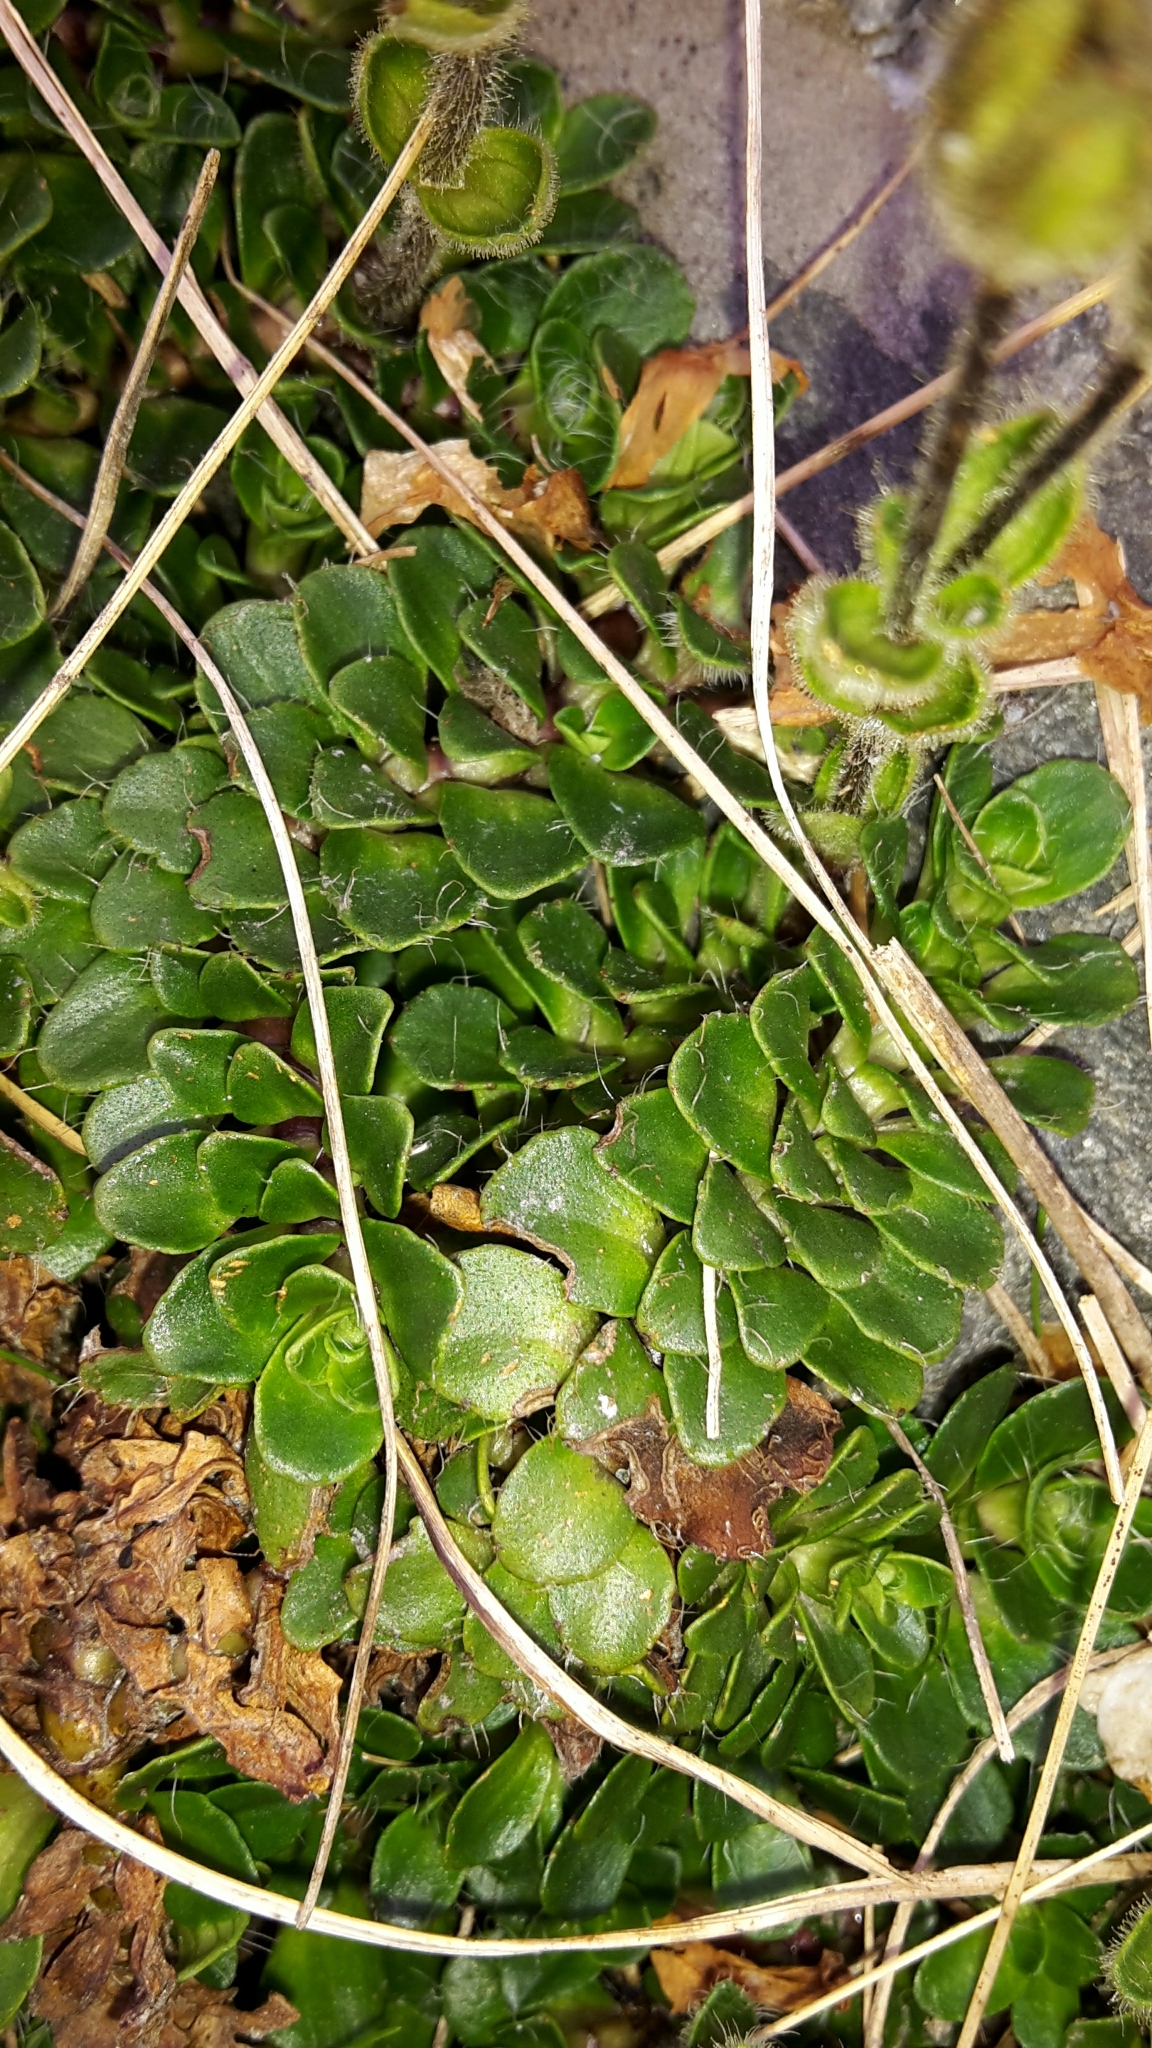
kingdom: Plantae
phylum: Tracheophyta
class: Magnoliopsida
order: Lamiales
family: Plantaginaceae
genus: Ourisia
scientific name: Ourisia glandulosa
